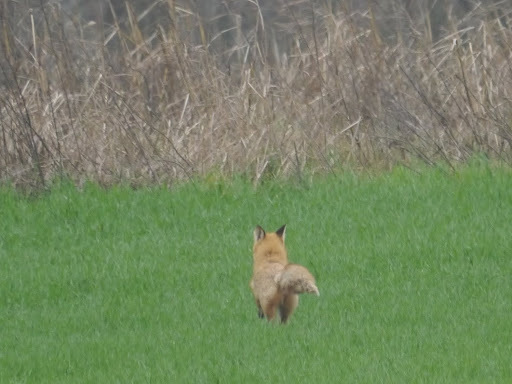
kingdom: Animalia
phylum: Chordata
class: Mammalia
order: Carnivora
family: Canidae
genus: Vulpes
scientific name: Vulpes vulpes
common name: Red fox
